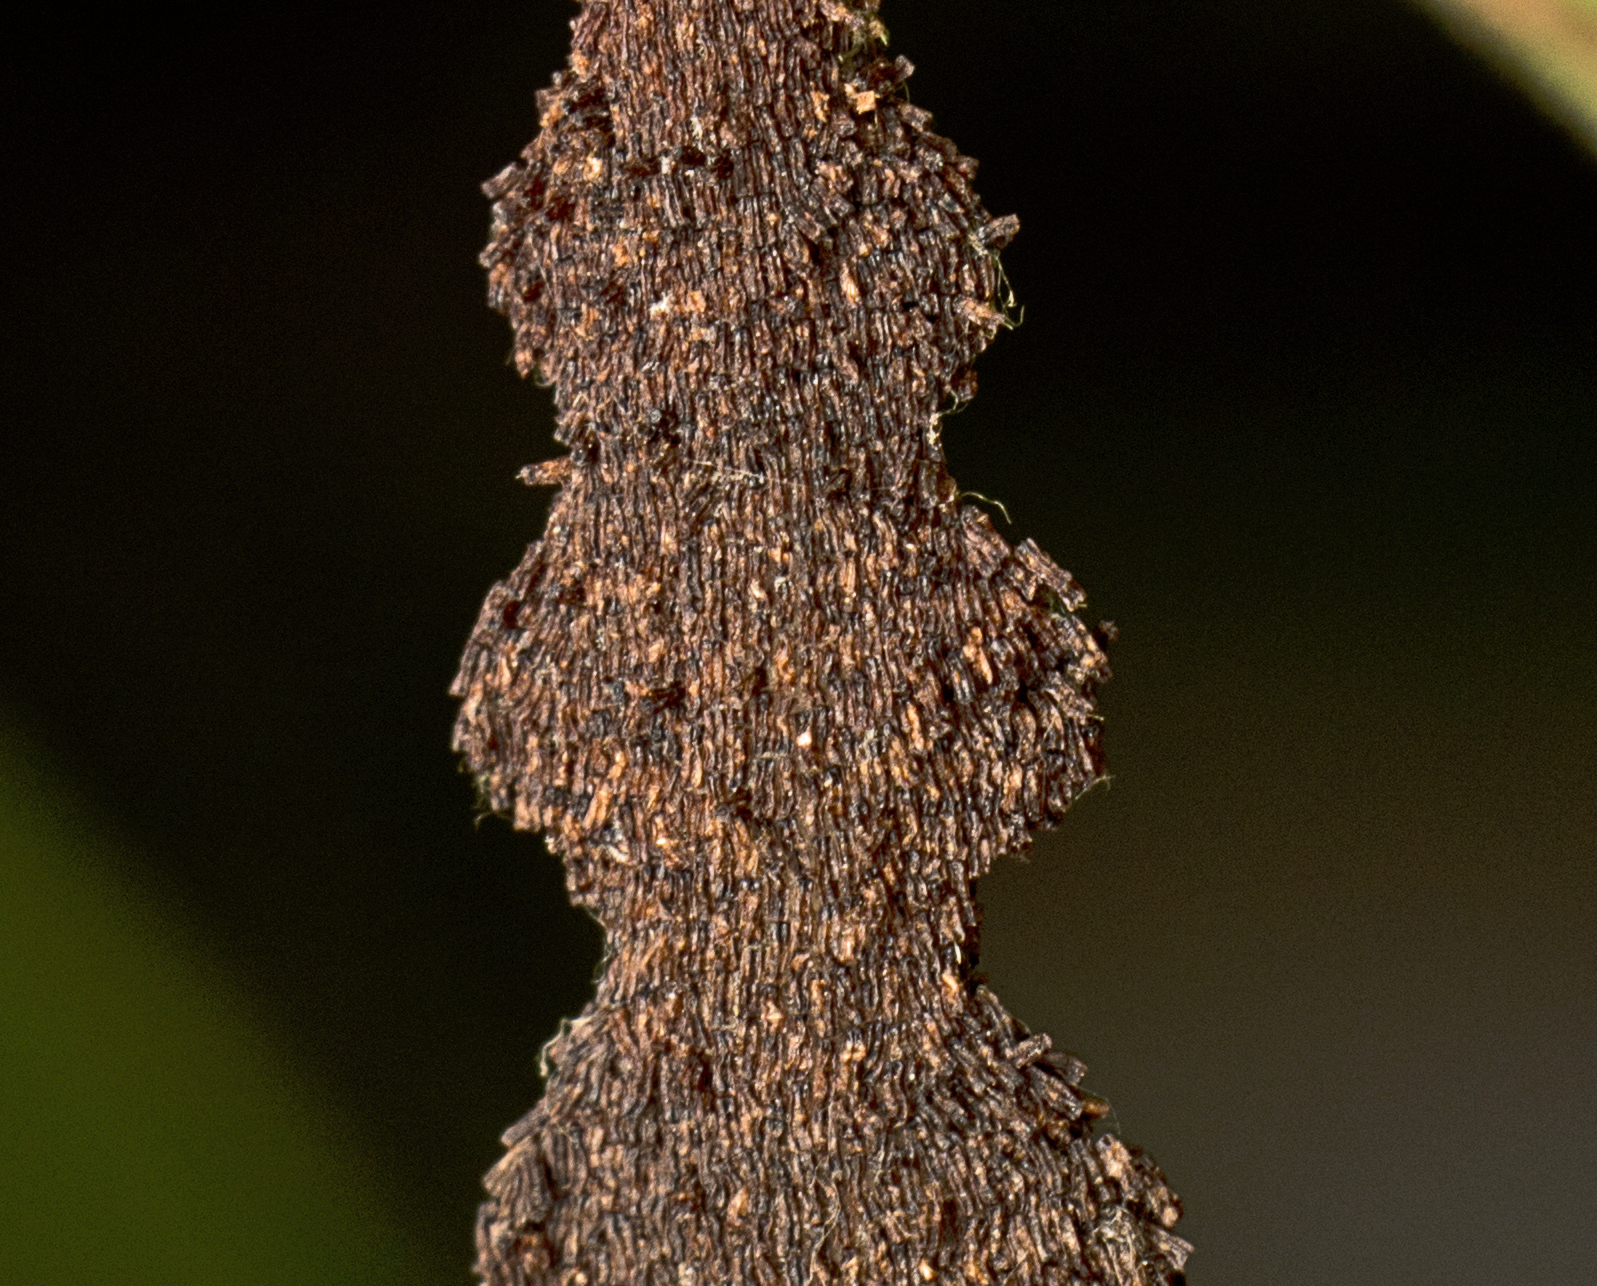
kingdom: Animalia
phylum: Arthropoda
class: Insecta
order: Lepidoptera
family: Pyralidae
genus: Stericta
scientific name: Stericta orchidivora
